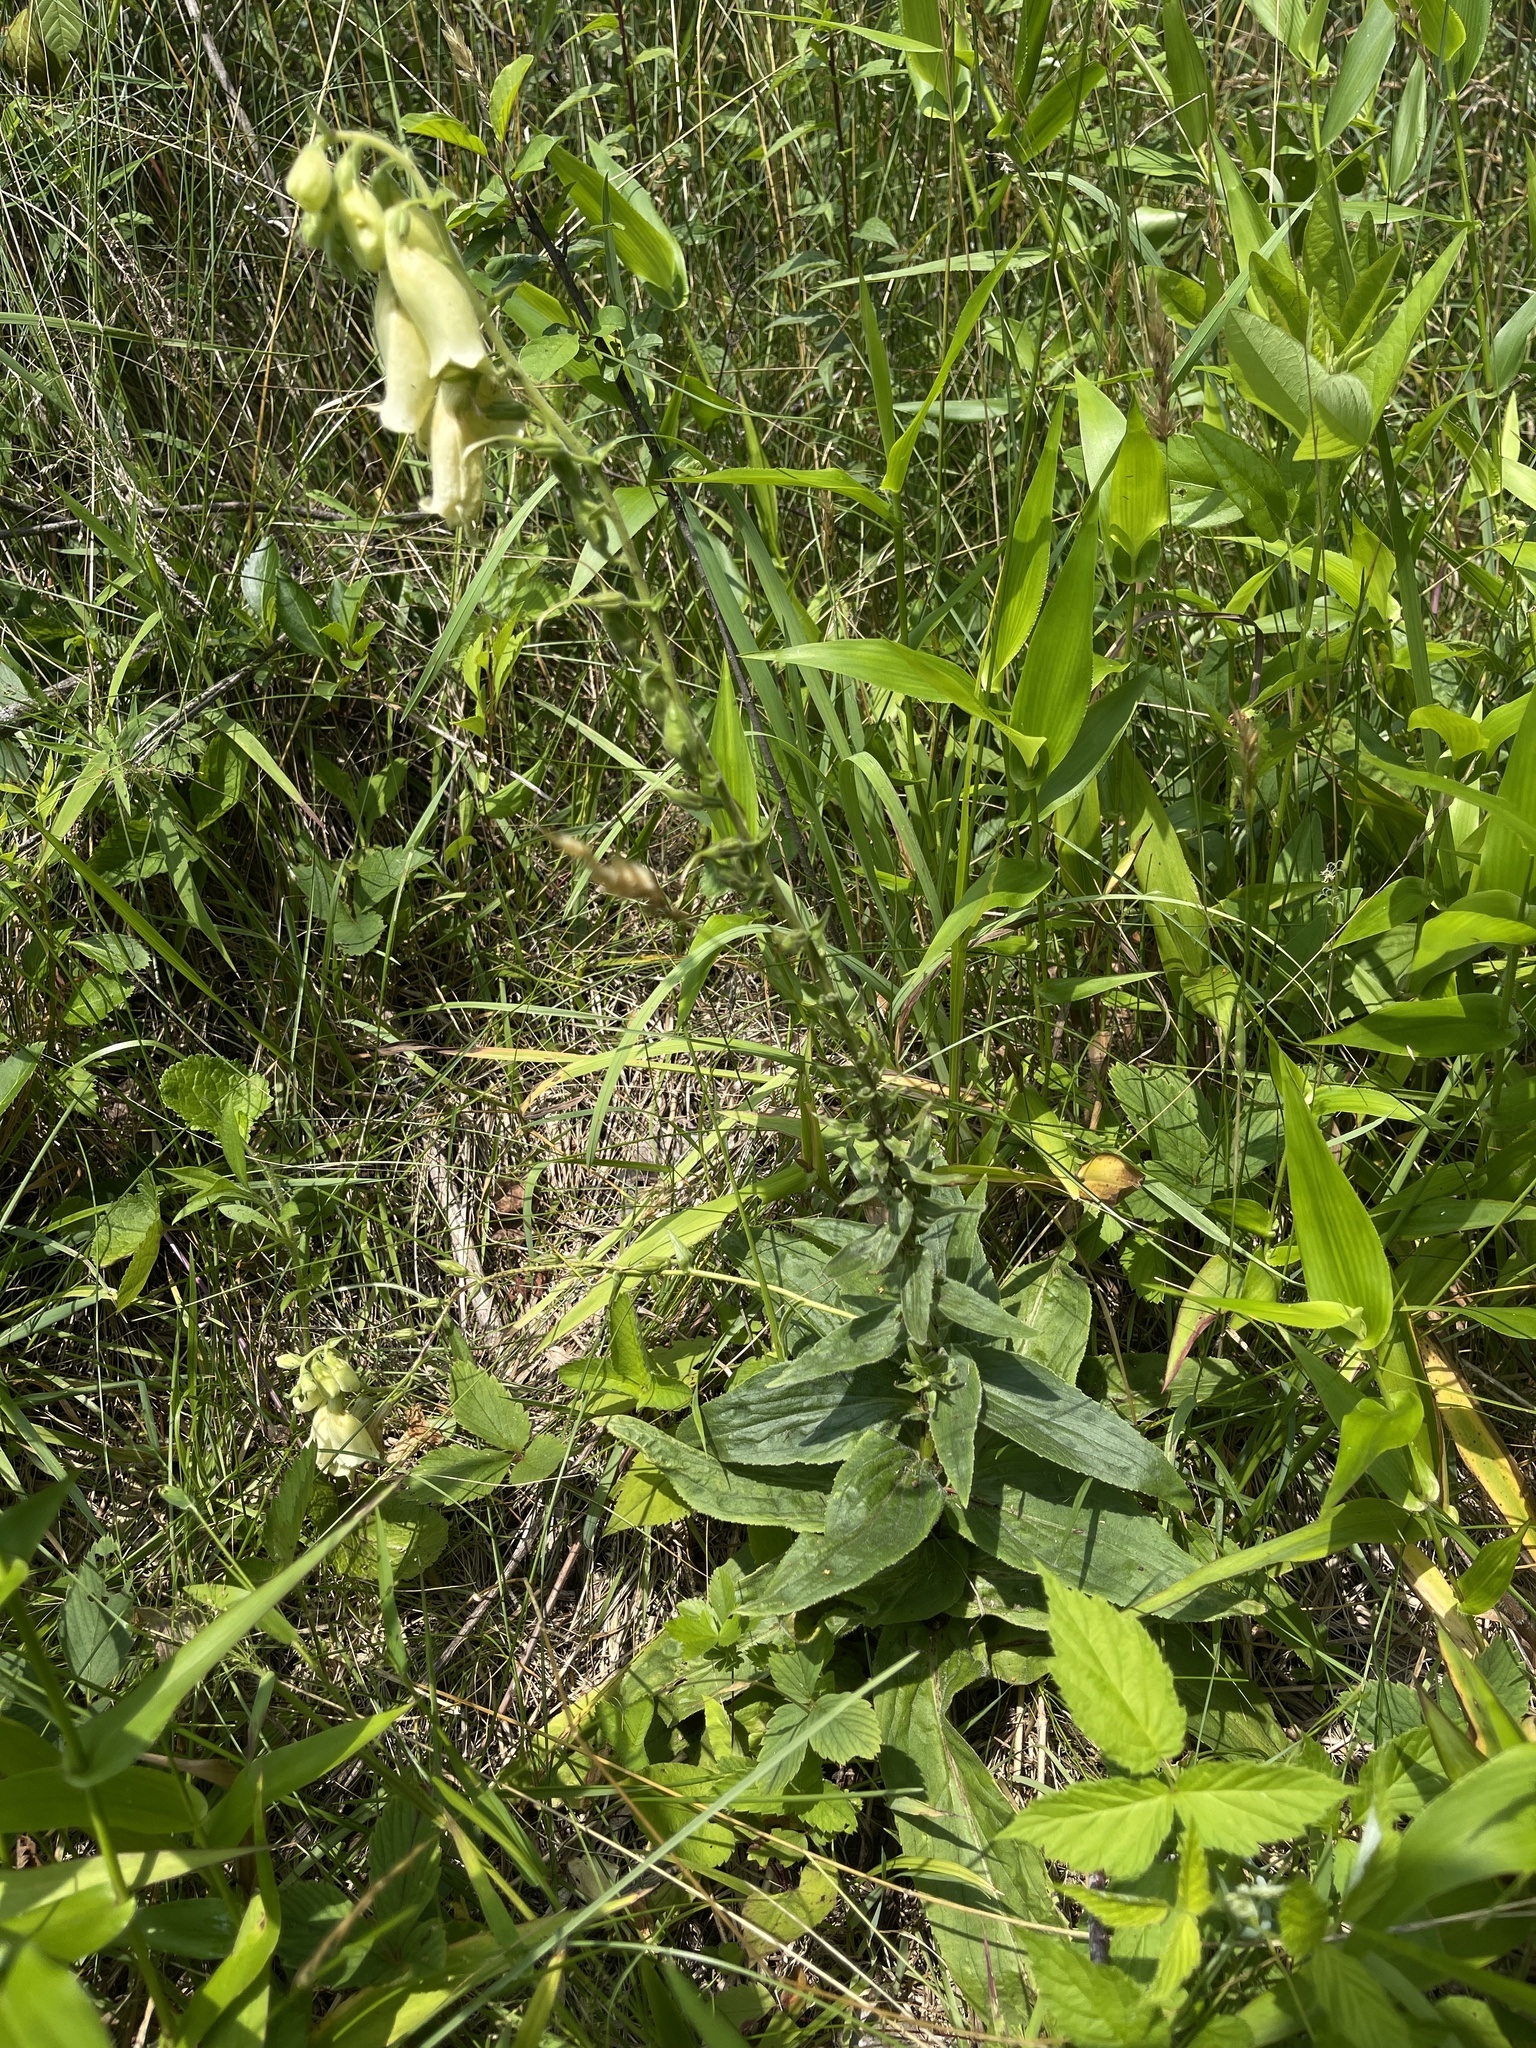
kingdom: Plantae
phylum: Tracheophyta
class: Magnoliopsida
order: Lamiales
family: Plantaginaceae
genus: Digitalis
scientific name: Digitalis grandiflora
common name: Yellow foxglove
